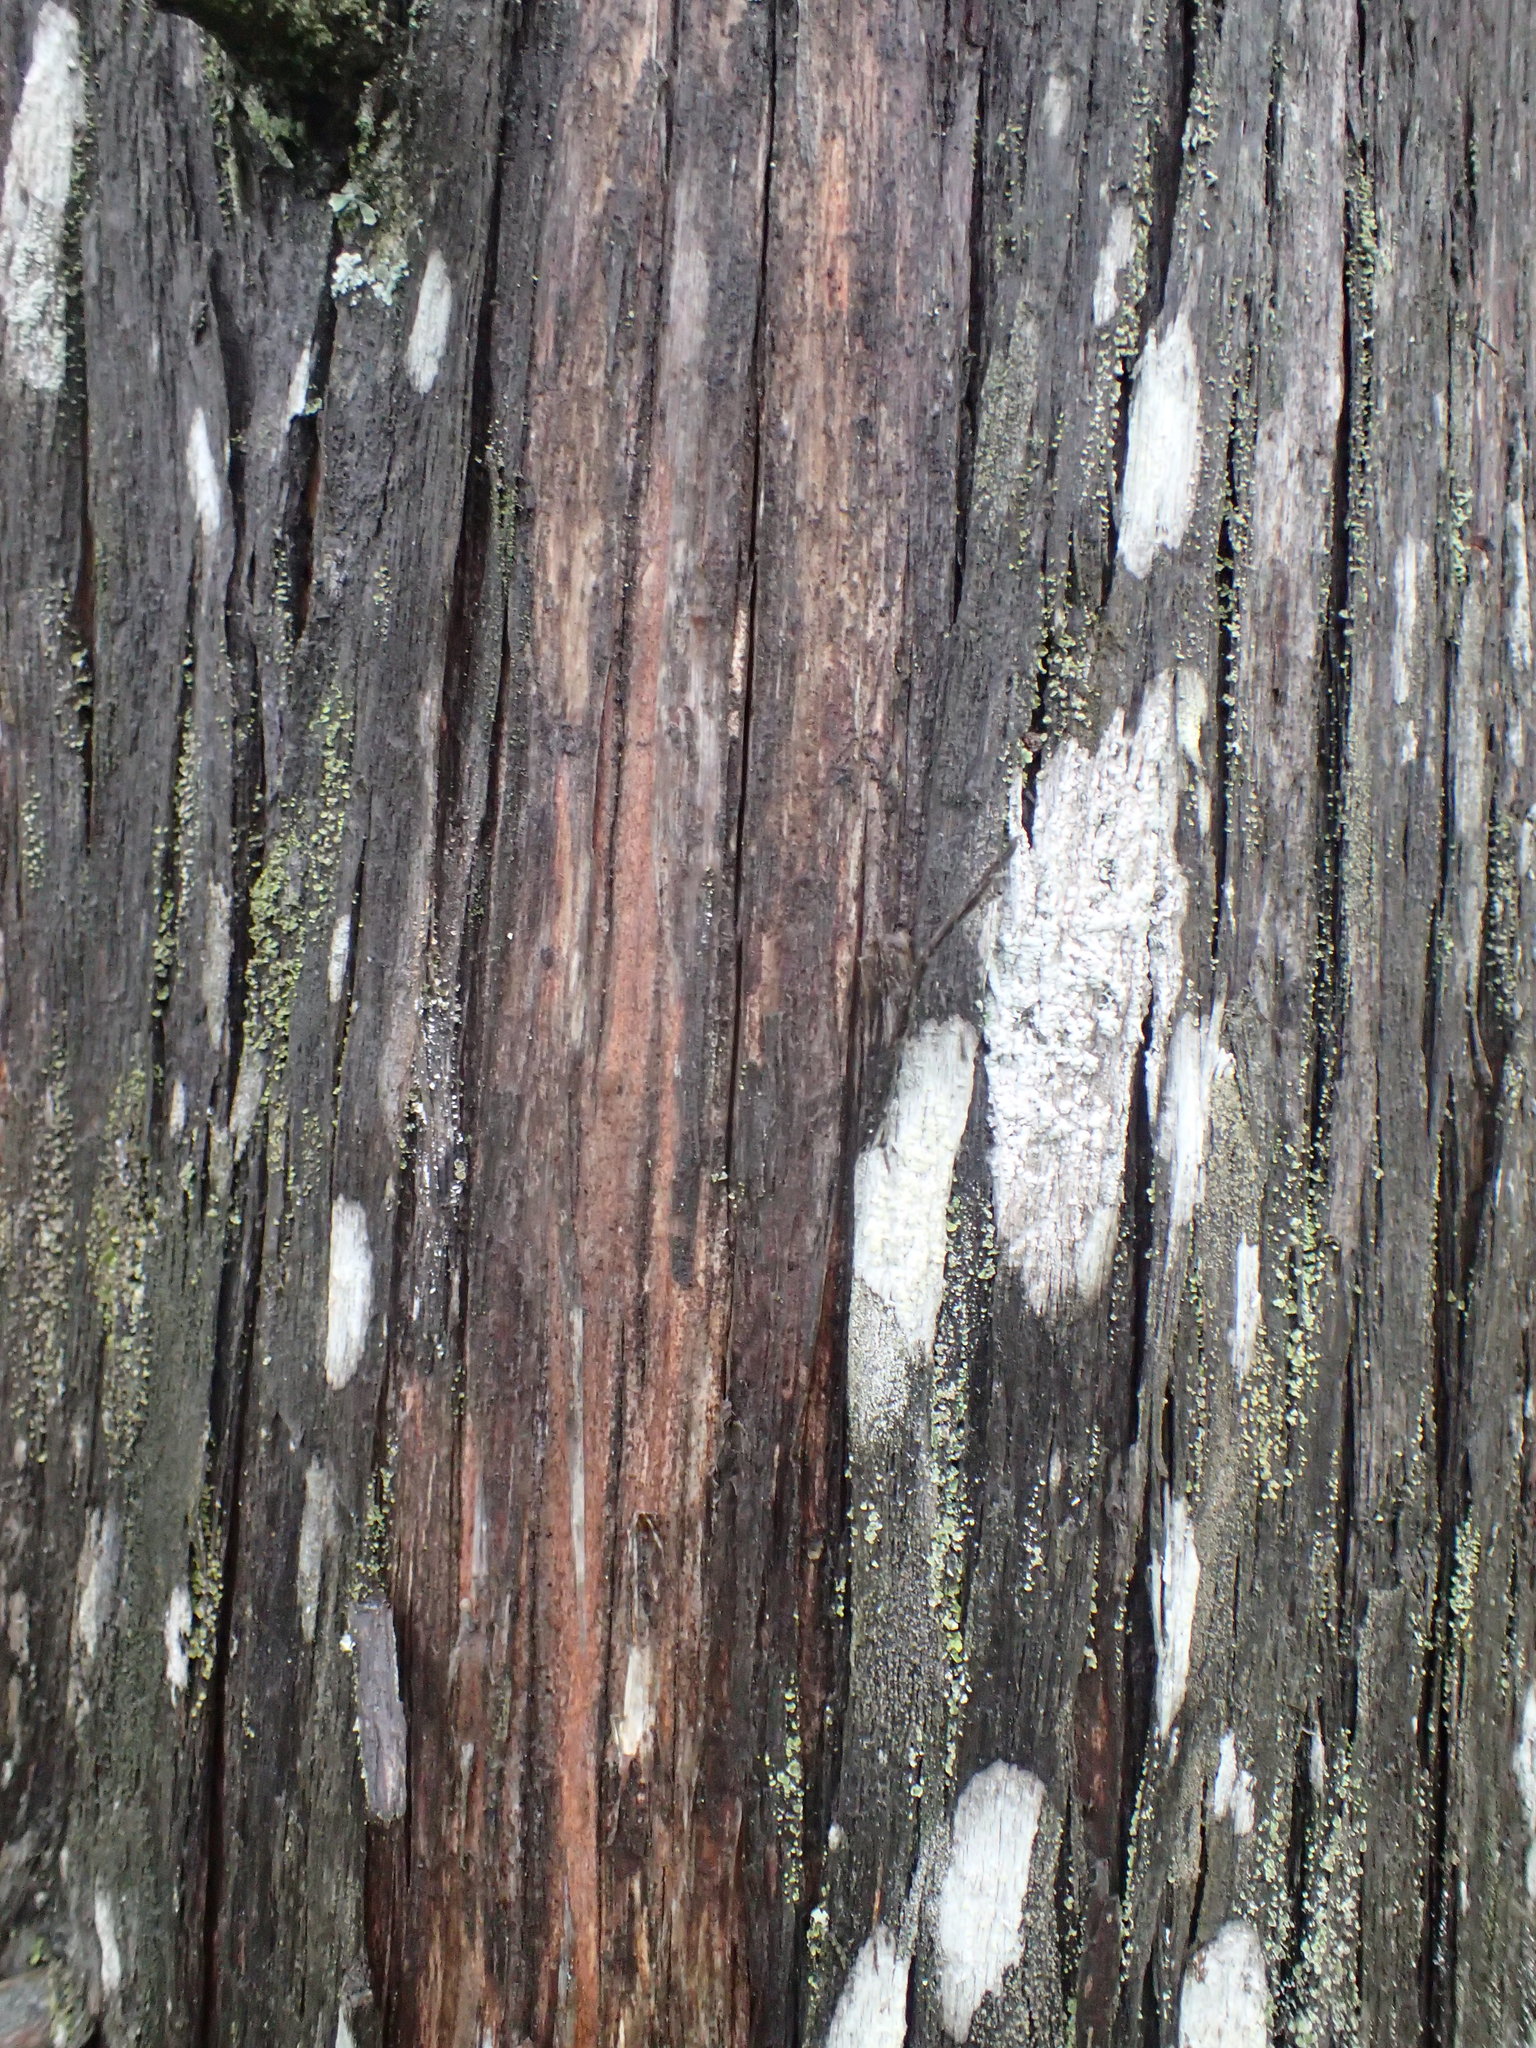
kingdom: Plantae
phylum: Tracheophyta
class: Pinopsida
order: Pinales
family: Cupressaceae
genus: Thuja
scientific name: Thuja occidentalis
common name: Northern white-cedar
